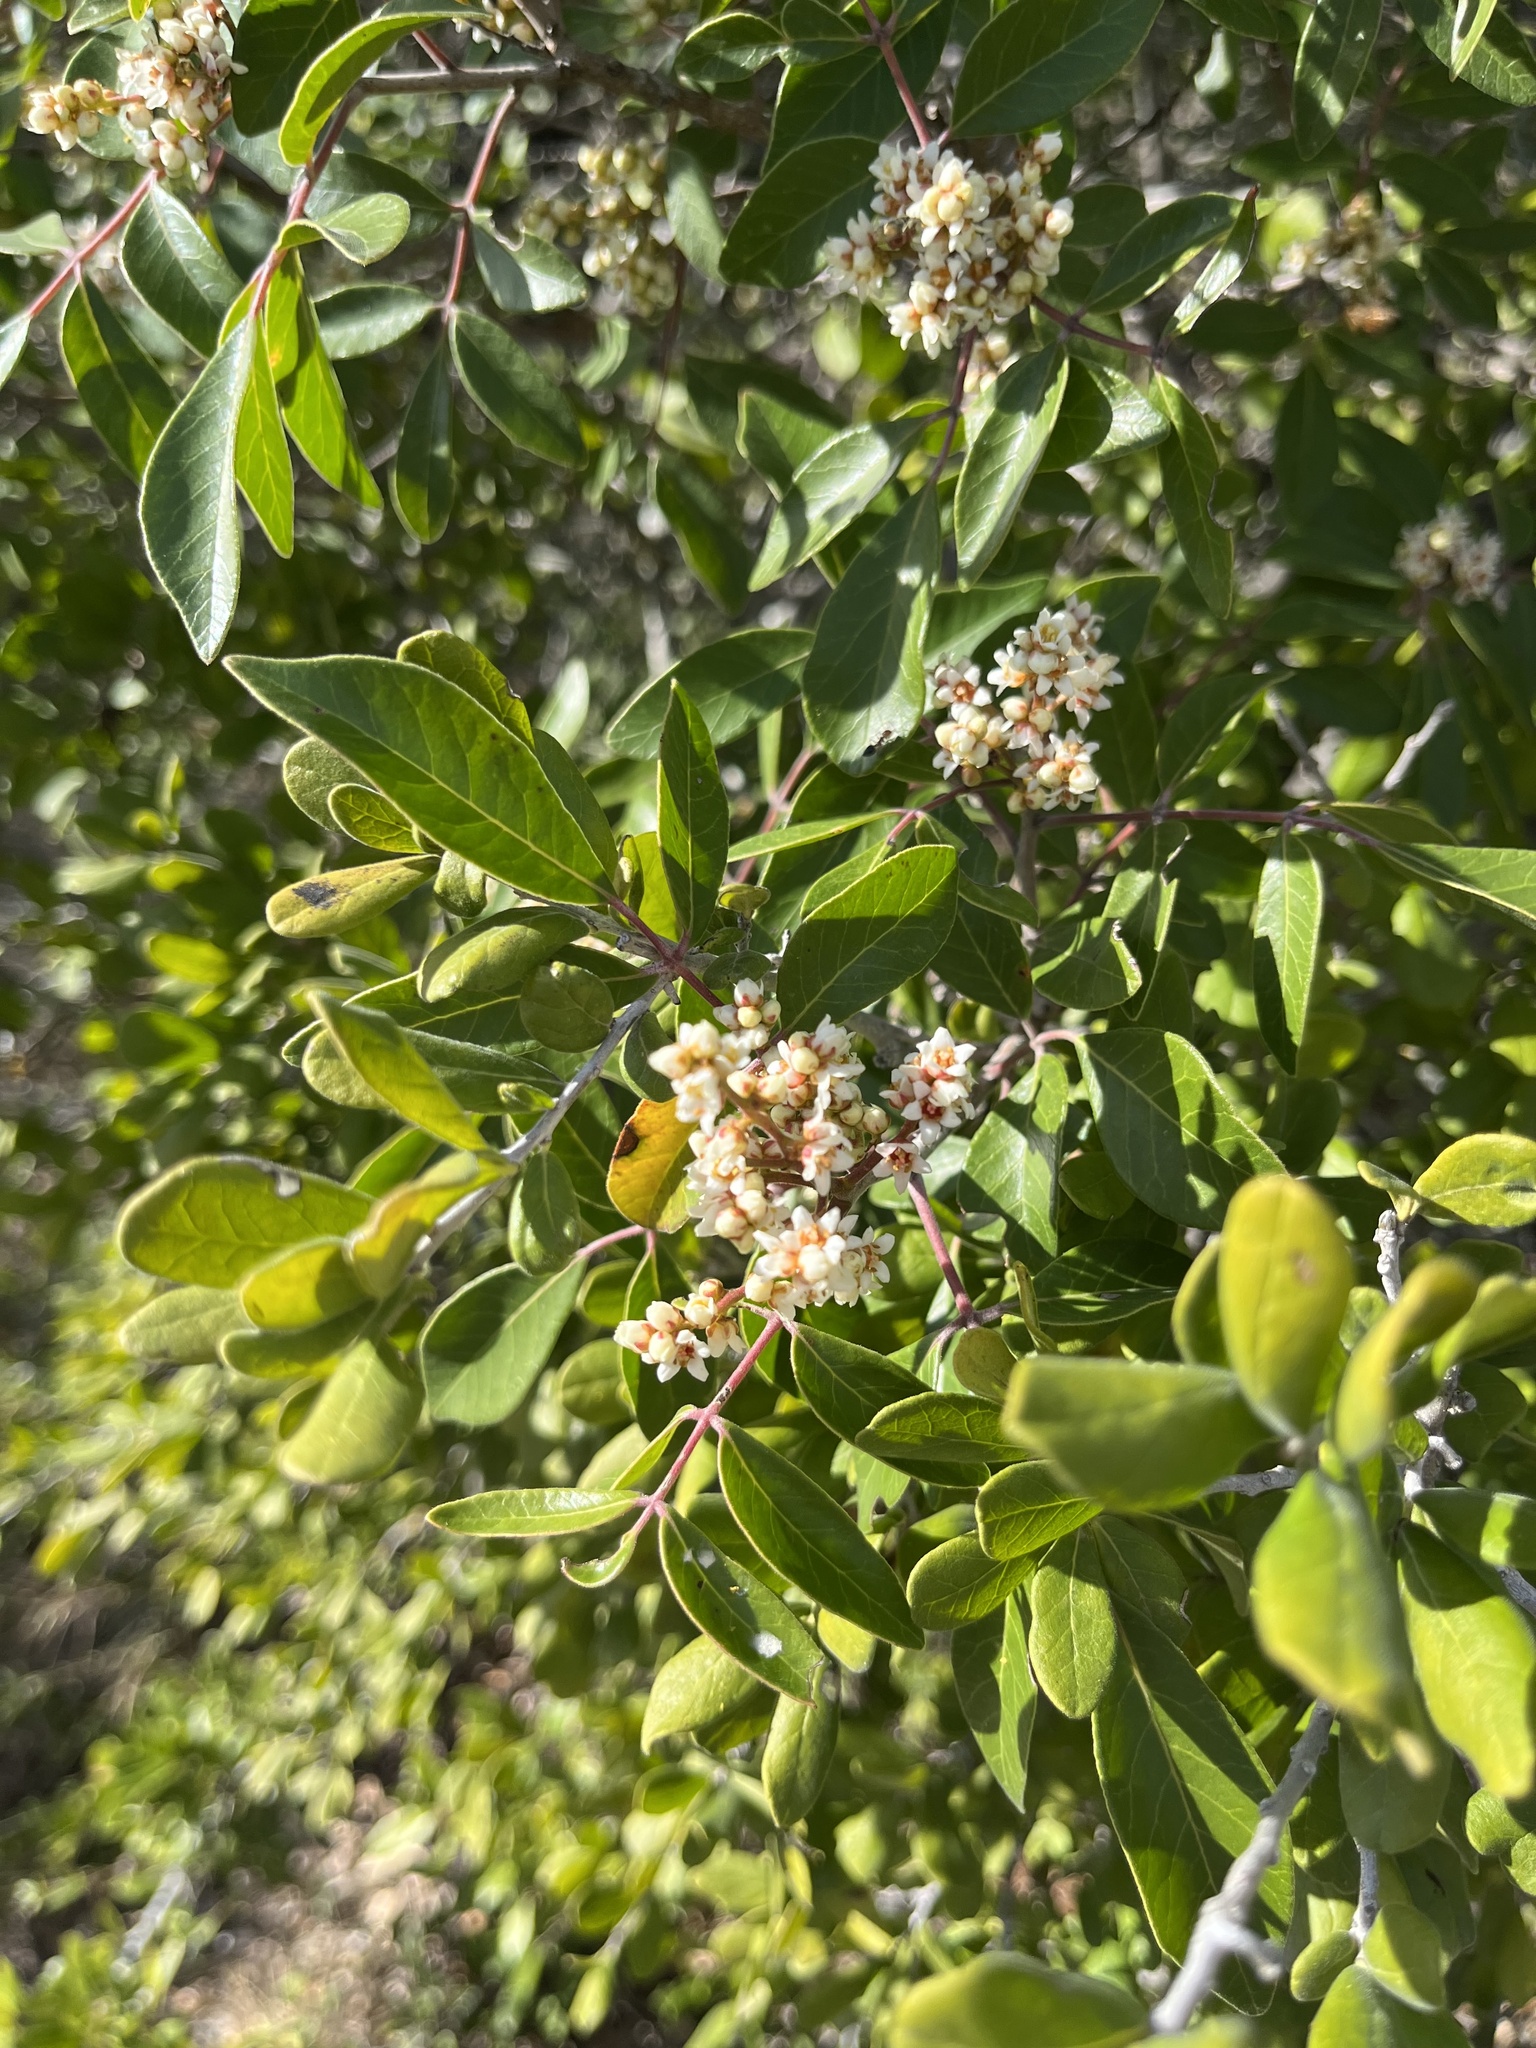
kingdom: Plantae
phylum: Tracheophyta
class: Magnoliopsida
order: Sapindales
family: Anacardiaceae
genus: Rhus
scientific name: Rhus virens
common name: Evergreen sumac
